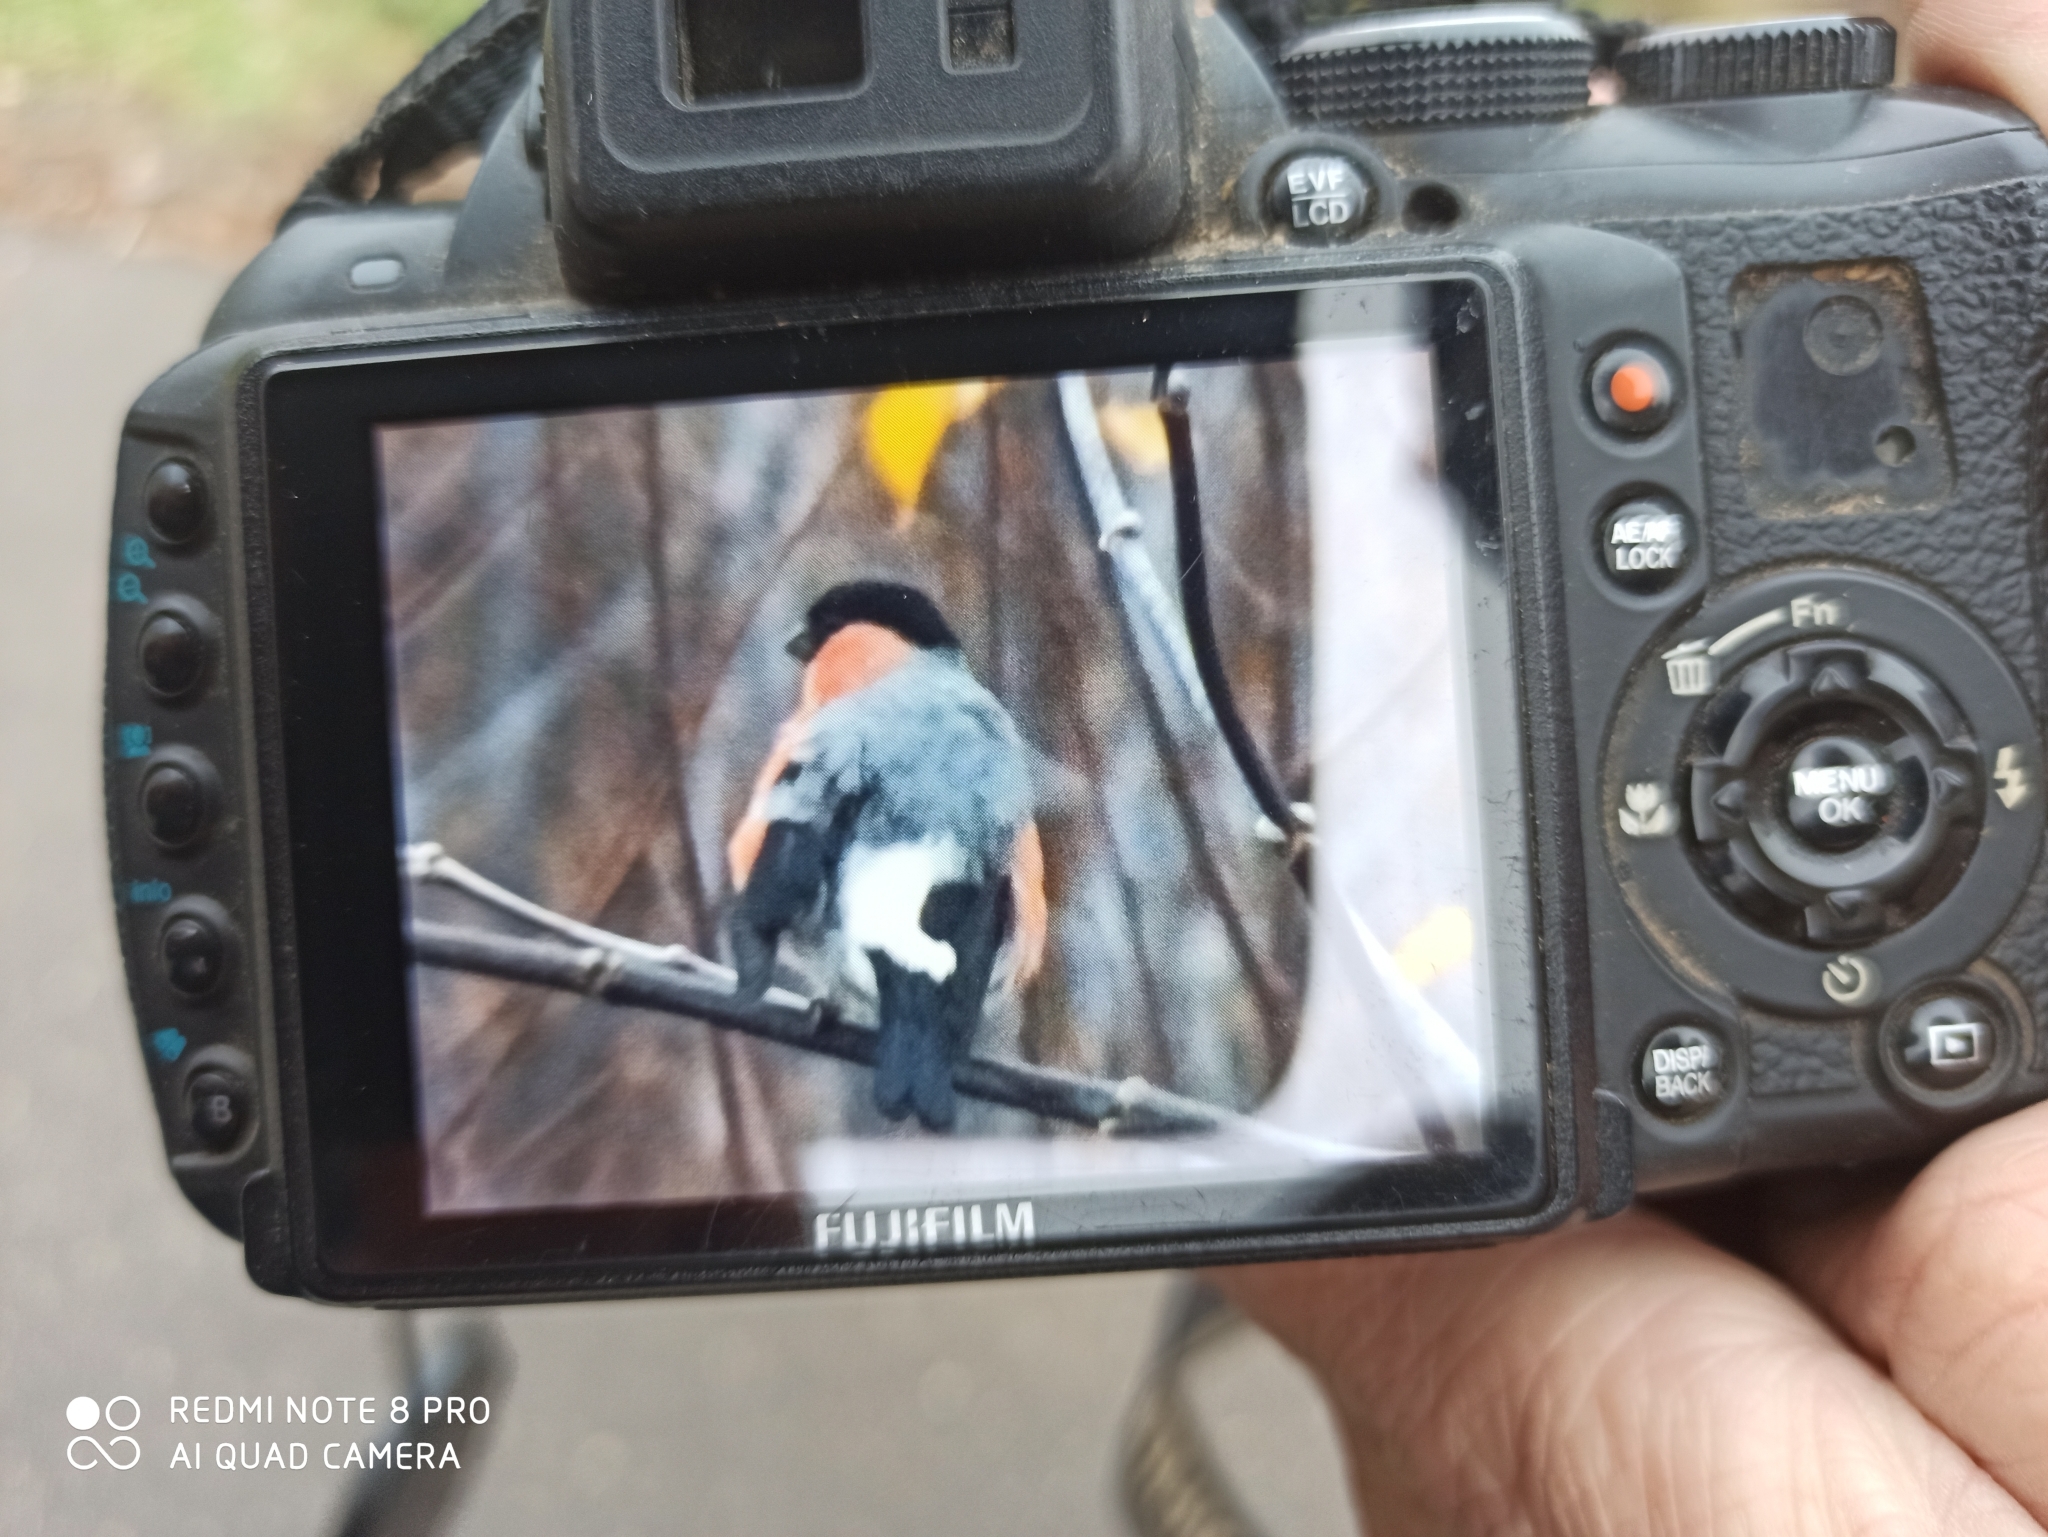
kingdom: Animalia
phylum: Chordata
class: Aves
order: Passeriformes
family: Fringillidae
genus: Pyrrhula
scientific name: Pyrrhula pyrrhula
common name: Eurasian bullfinch
